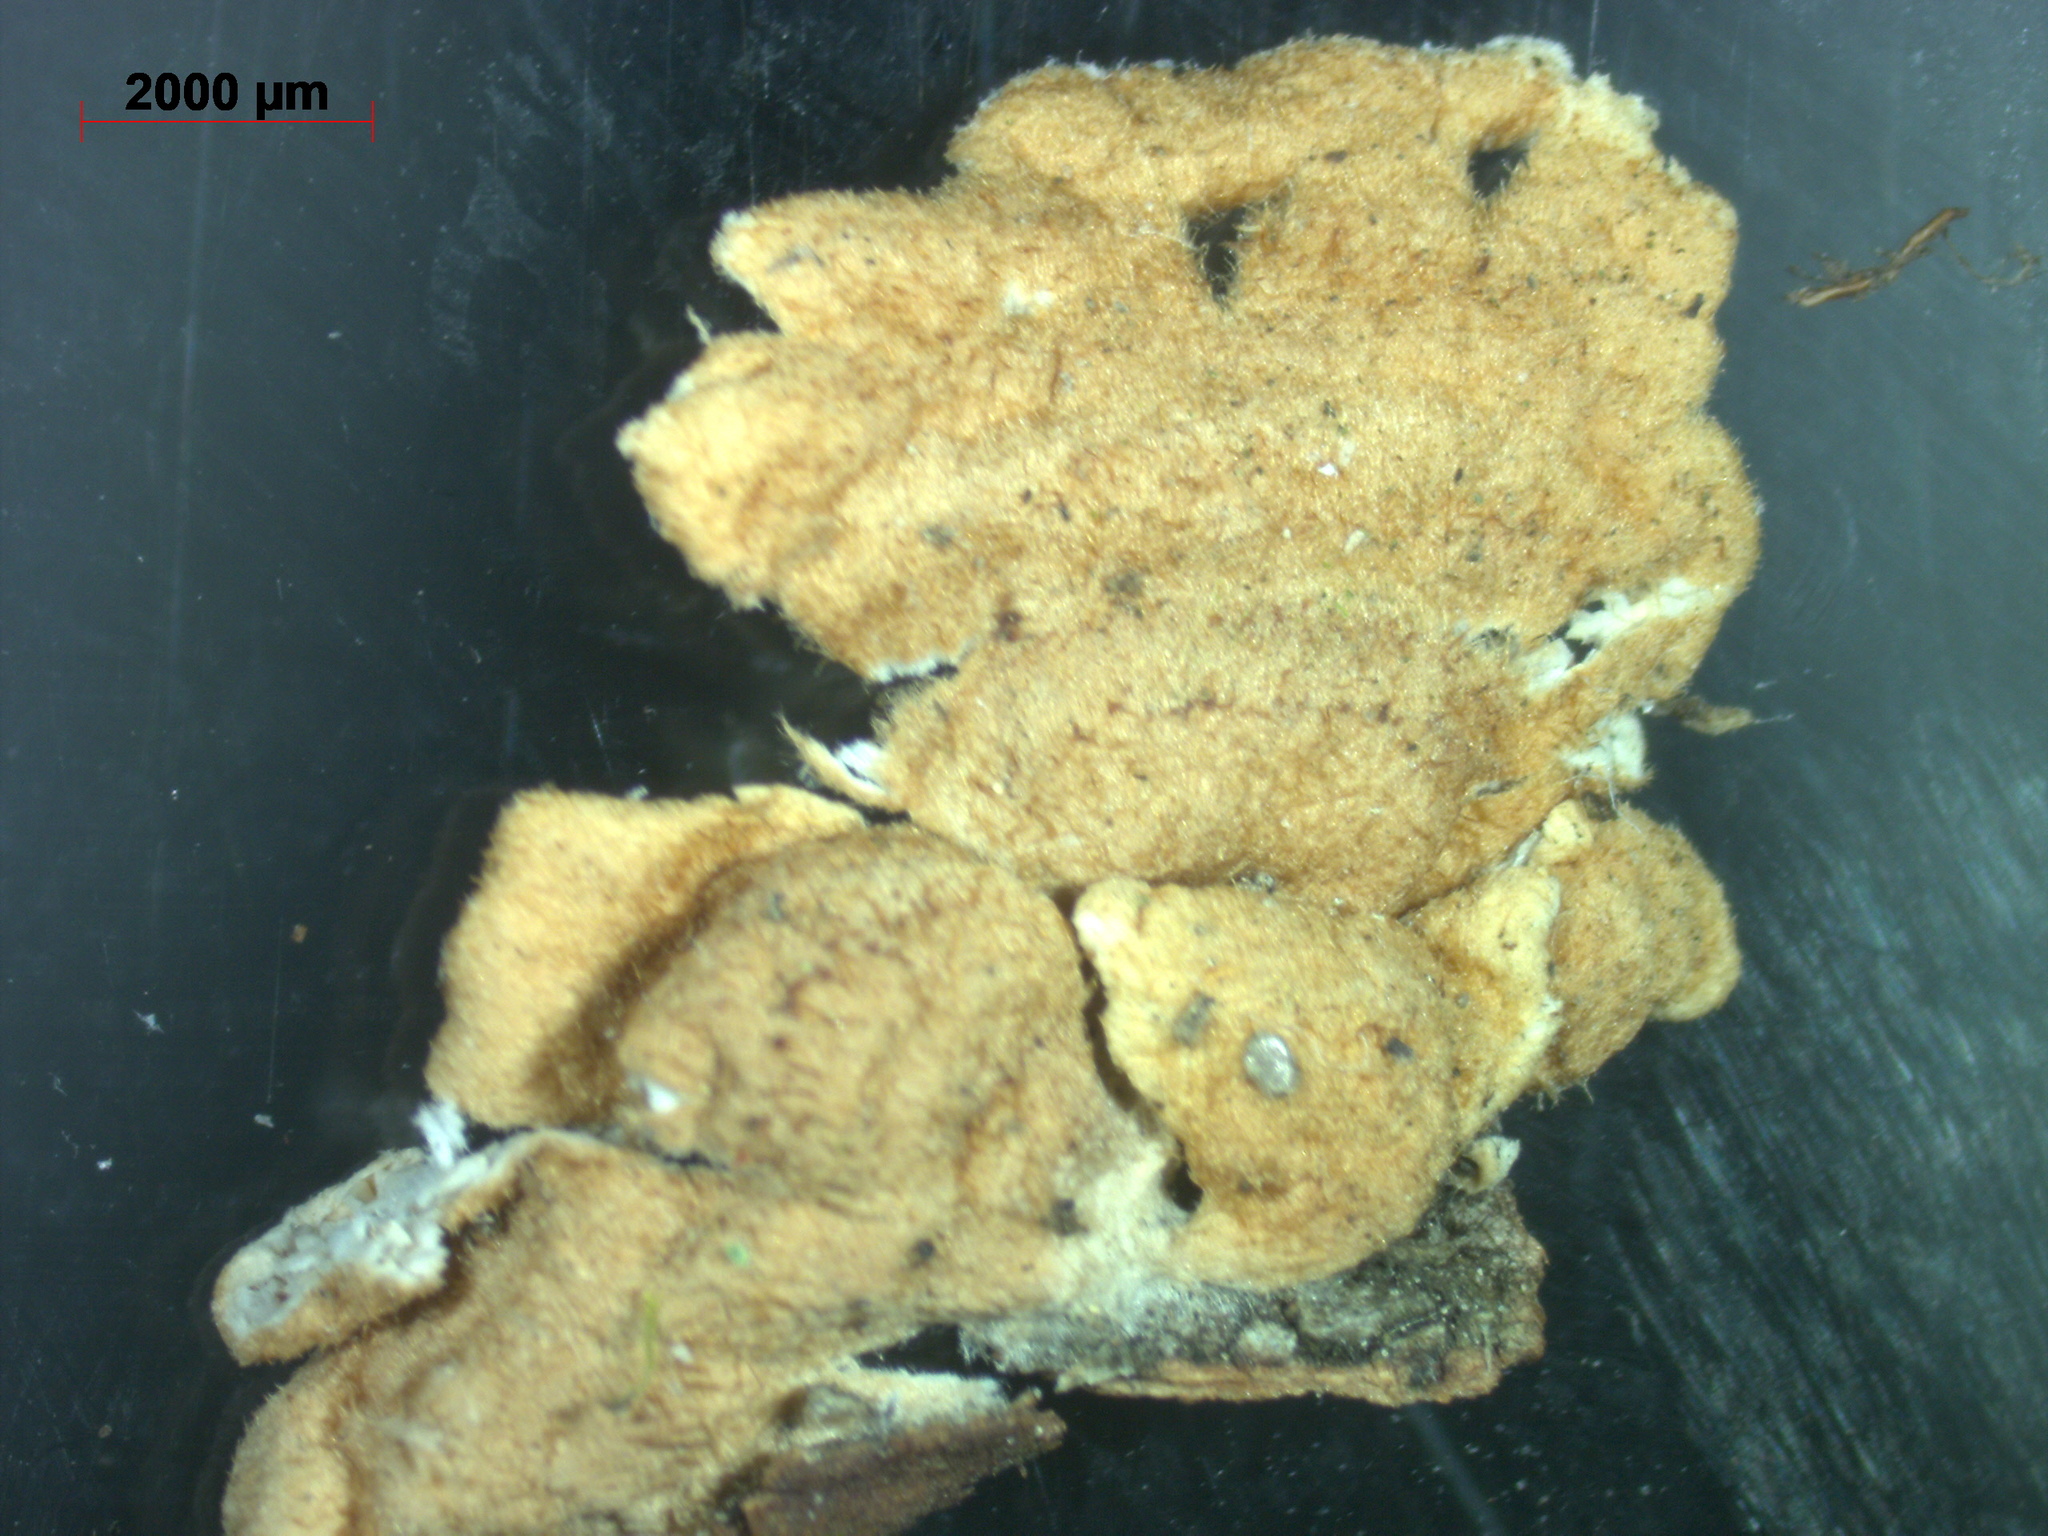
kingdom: Fungi
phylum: Basidiomycota
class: Agaricomycetes
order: Amylocorticiales
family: Amylocorticiaceae
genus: Plicaturopsis
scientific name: Plicaturopsis crispa
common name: Crimped gill
